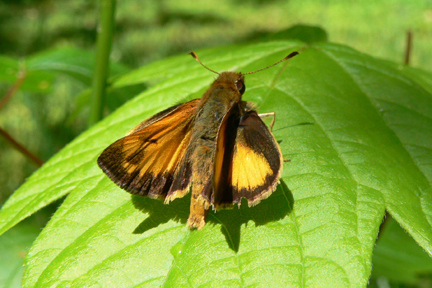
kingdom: Animalia
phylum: Arthropoda
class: Insecta
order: Lepidoptera
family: Hesperiidae
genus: Lon
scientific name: Lon zabulon
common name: Zabulon skipper
